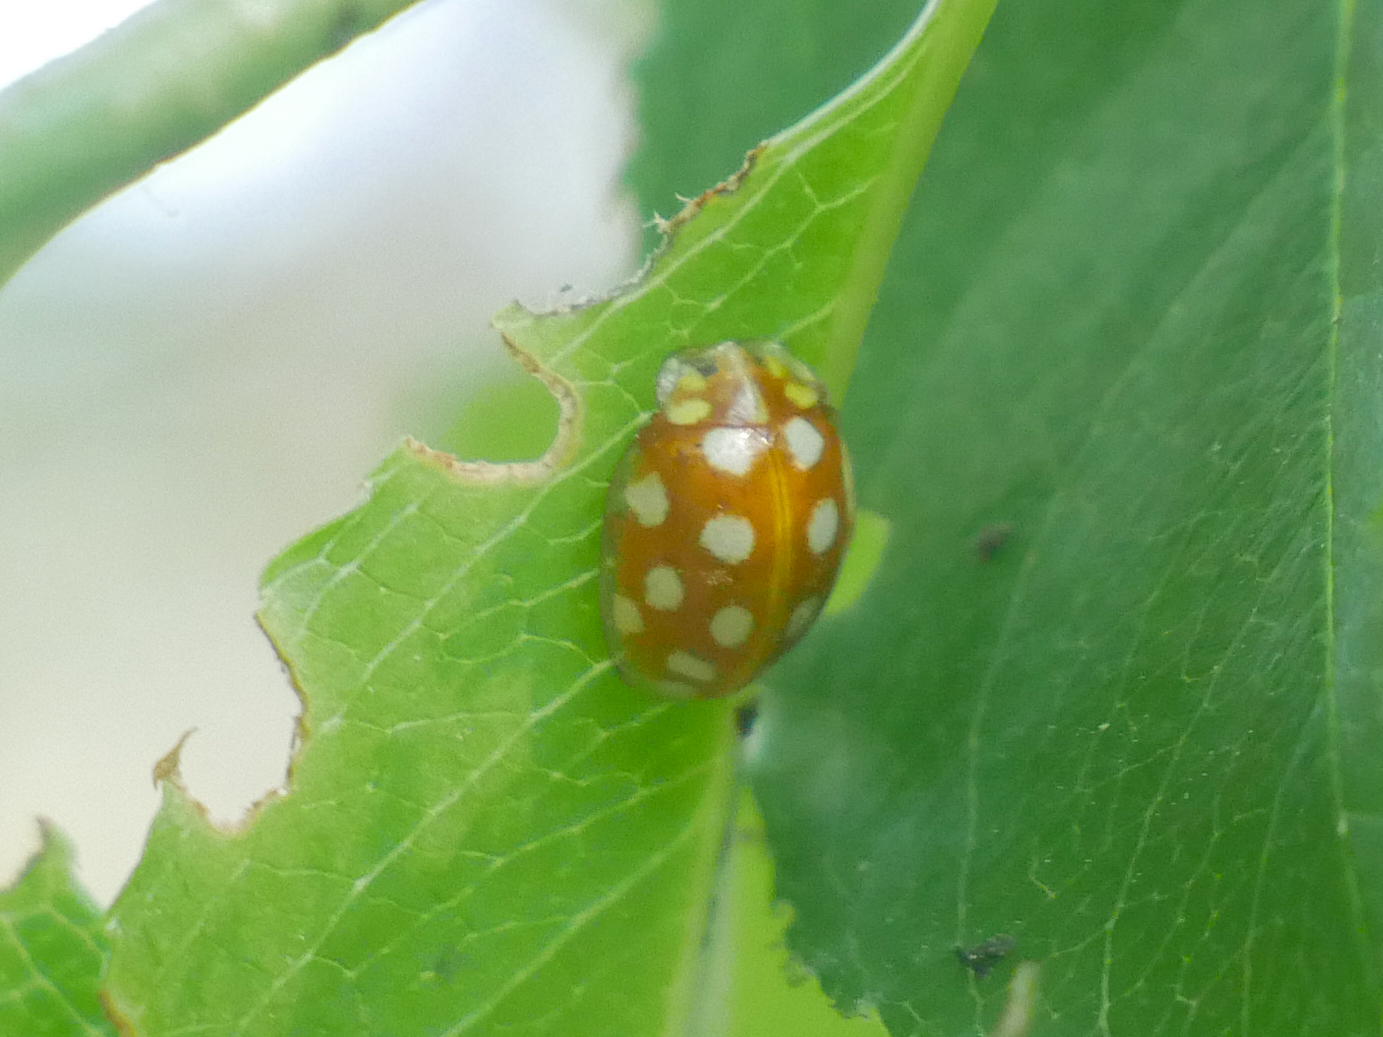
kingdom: Animalia
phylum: Arthropoda
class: Insecta
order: Coleoptera
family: Coccinellidae
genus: Halyzia
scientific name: Halyzia sedecimguttata
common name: Orange ladybird
